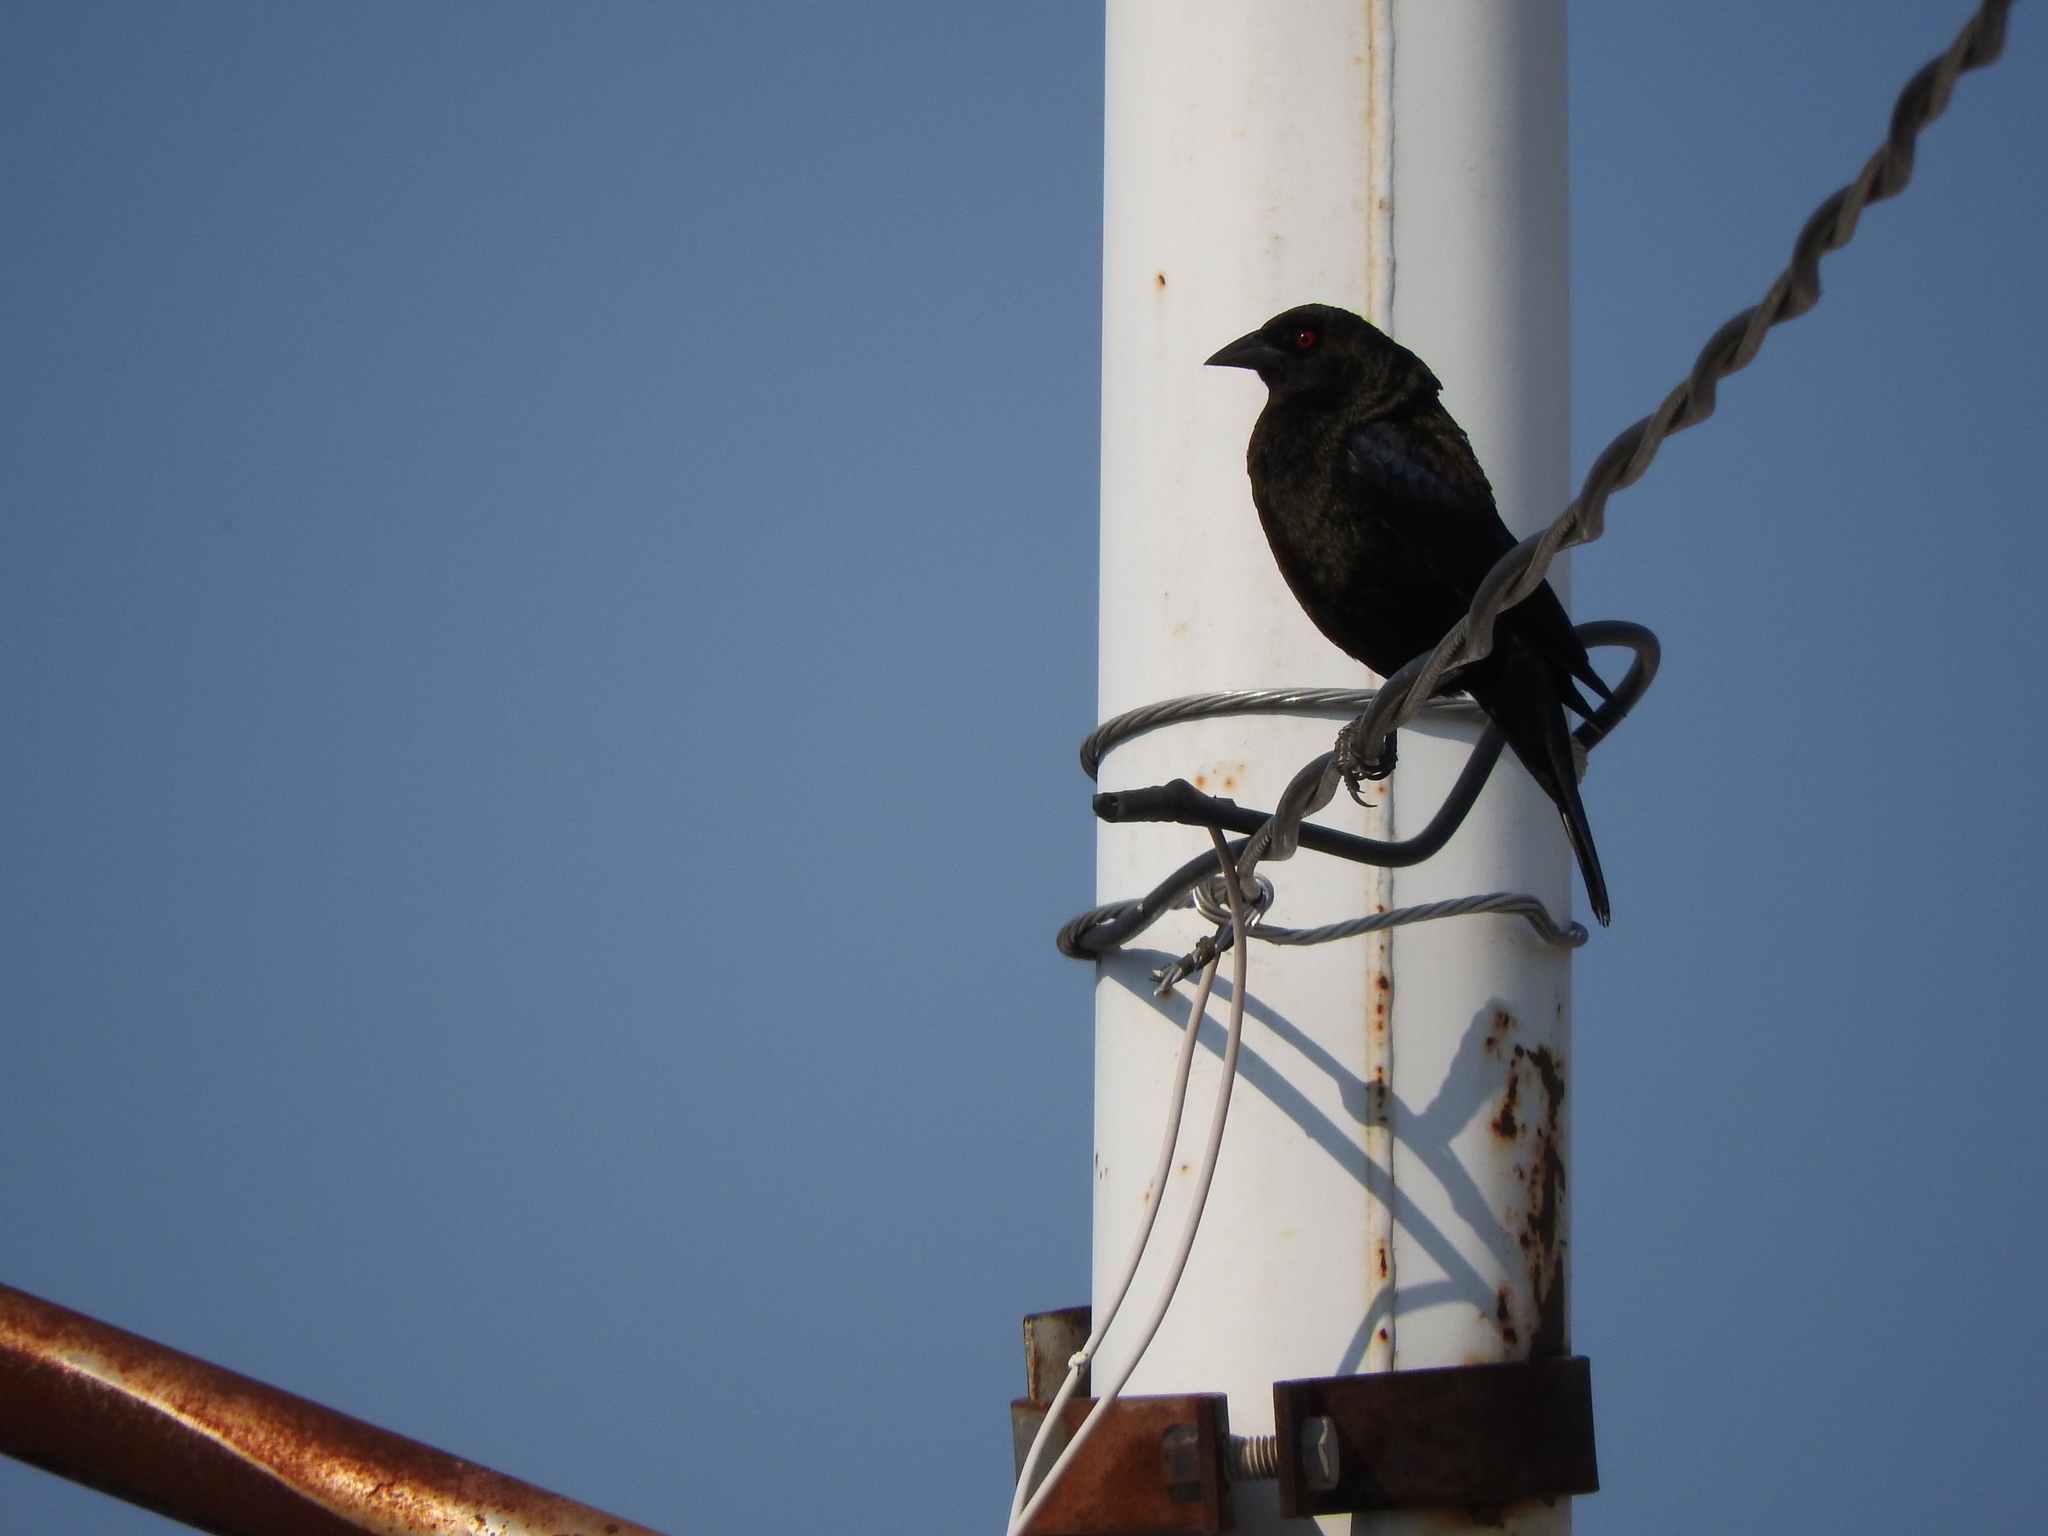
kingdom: Animalia
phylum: Chordata
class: Aves
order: Passeriformes
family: Icteridae
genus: Molothrus
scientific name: Molothrus aeneus
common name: Bronzed cowbird
